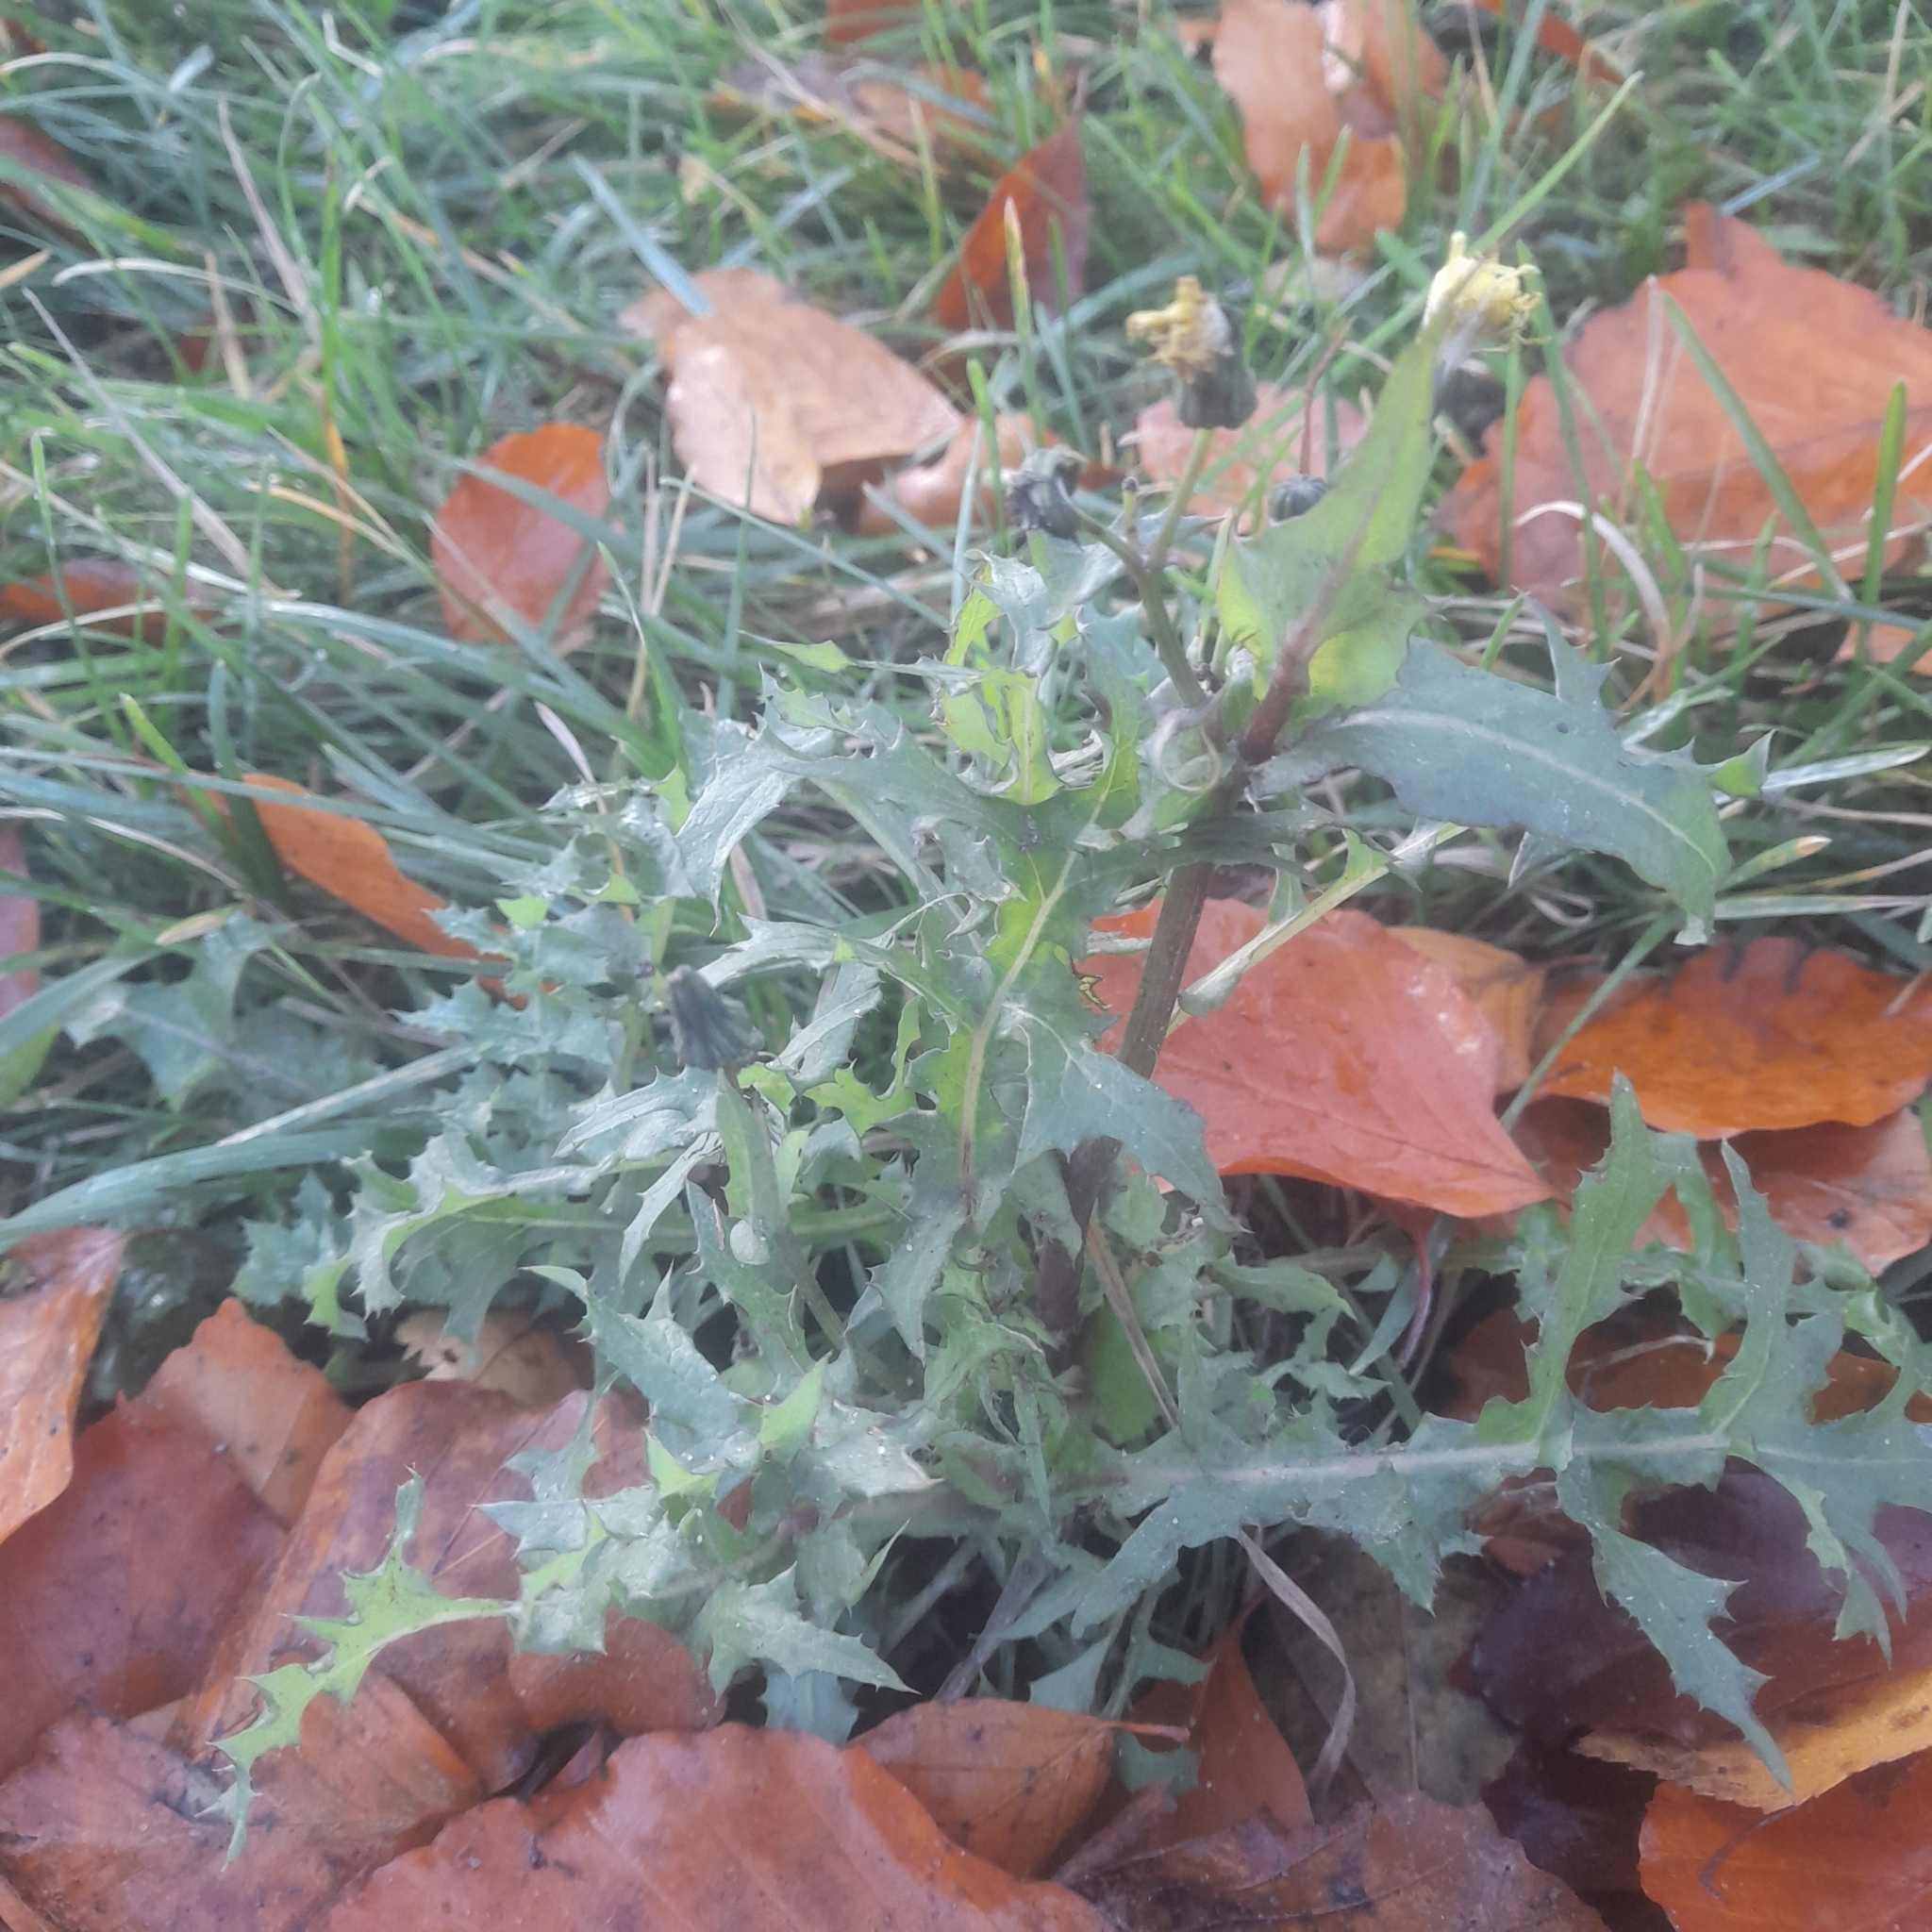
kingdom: Plantae
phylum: Tracheophyta
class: Magnoliopsida
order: Asterales
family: Asteraceae
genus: Sonchus
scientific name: Sonchus oleraceus
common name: Common sowthistle
